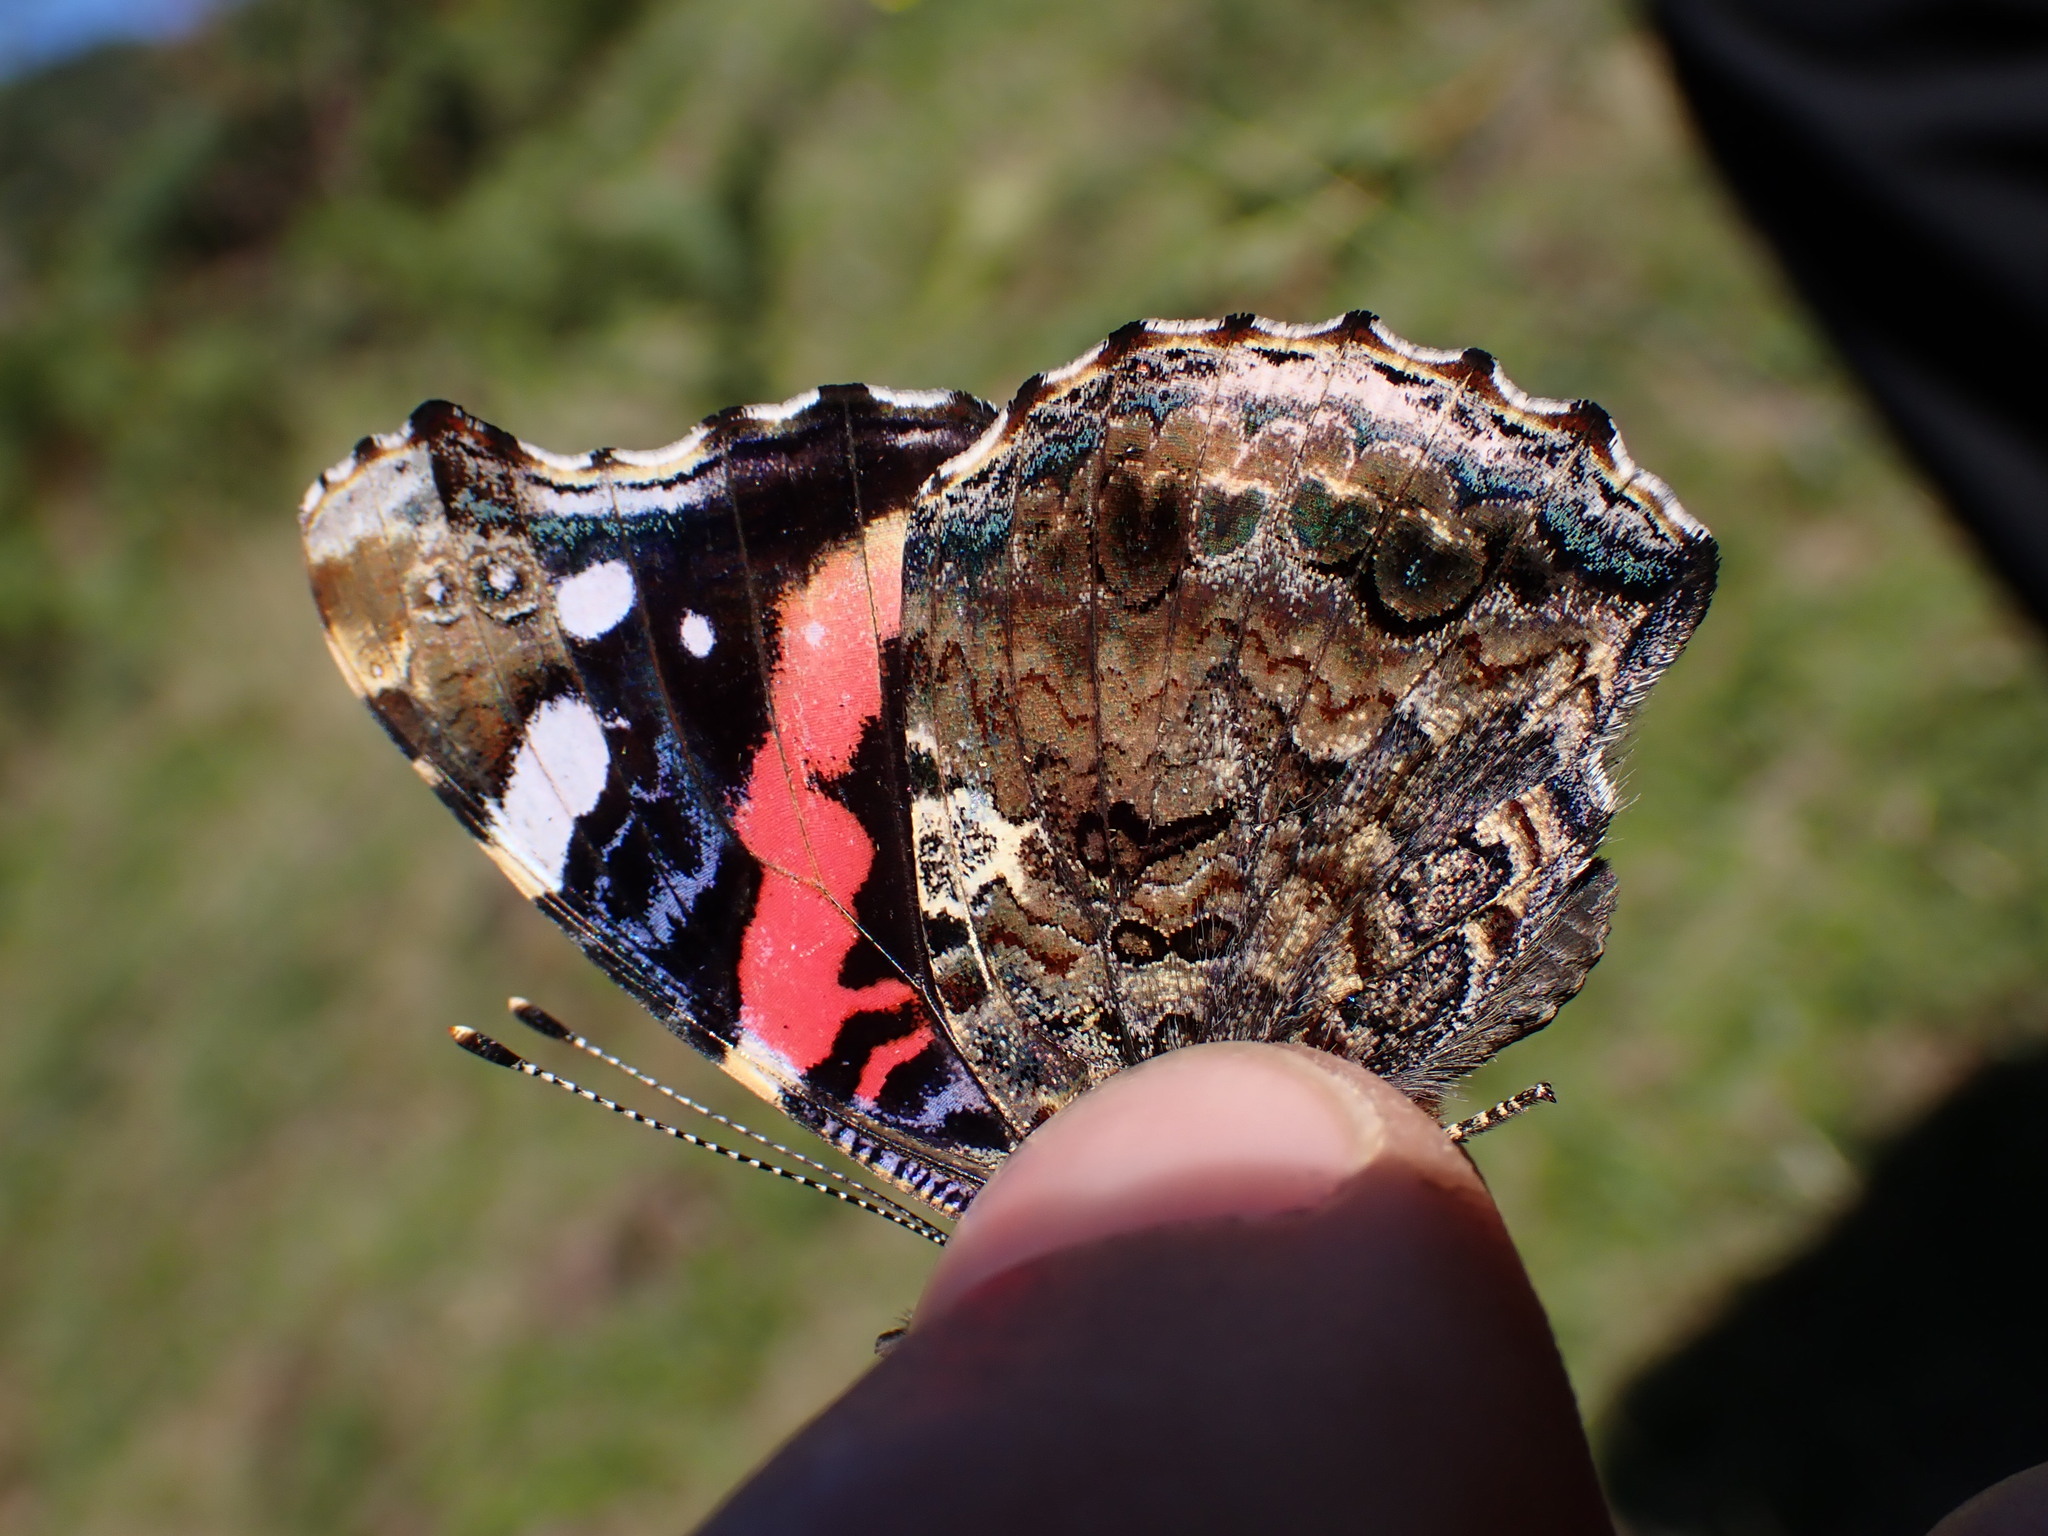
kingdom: Animalia
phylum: Arthropoda
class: Insecta
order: Lepidoptera
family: Nymphalidae
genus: Vanessa
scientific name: Vanessa atalanta
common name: Red admiral
